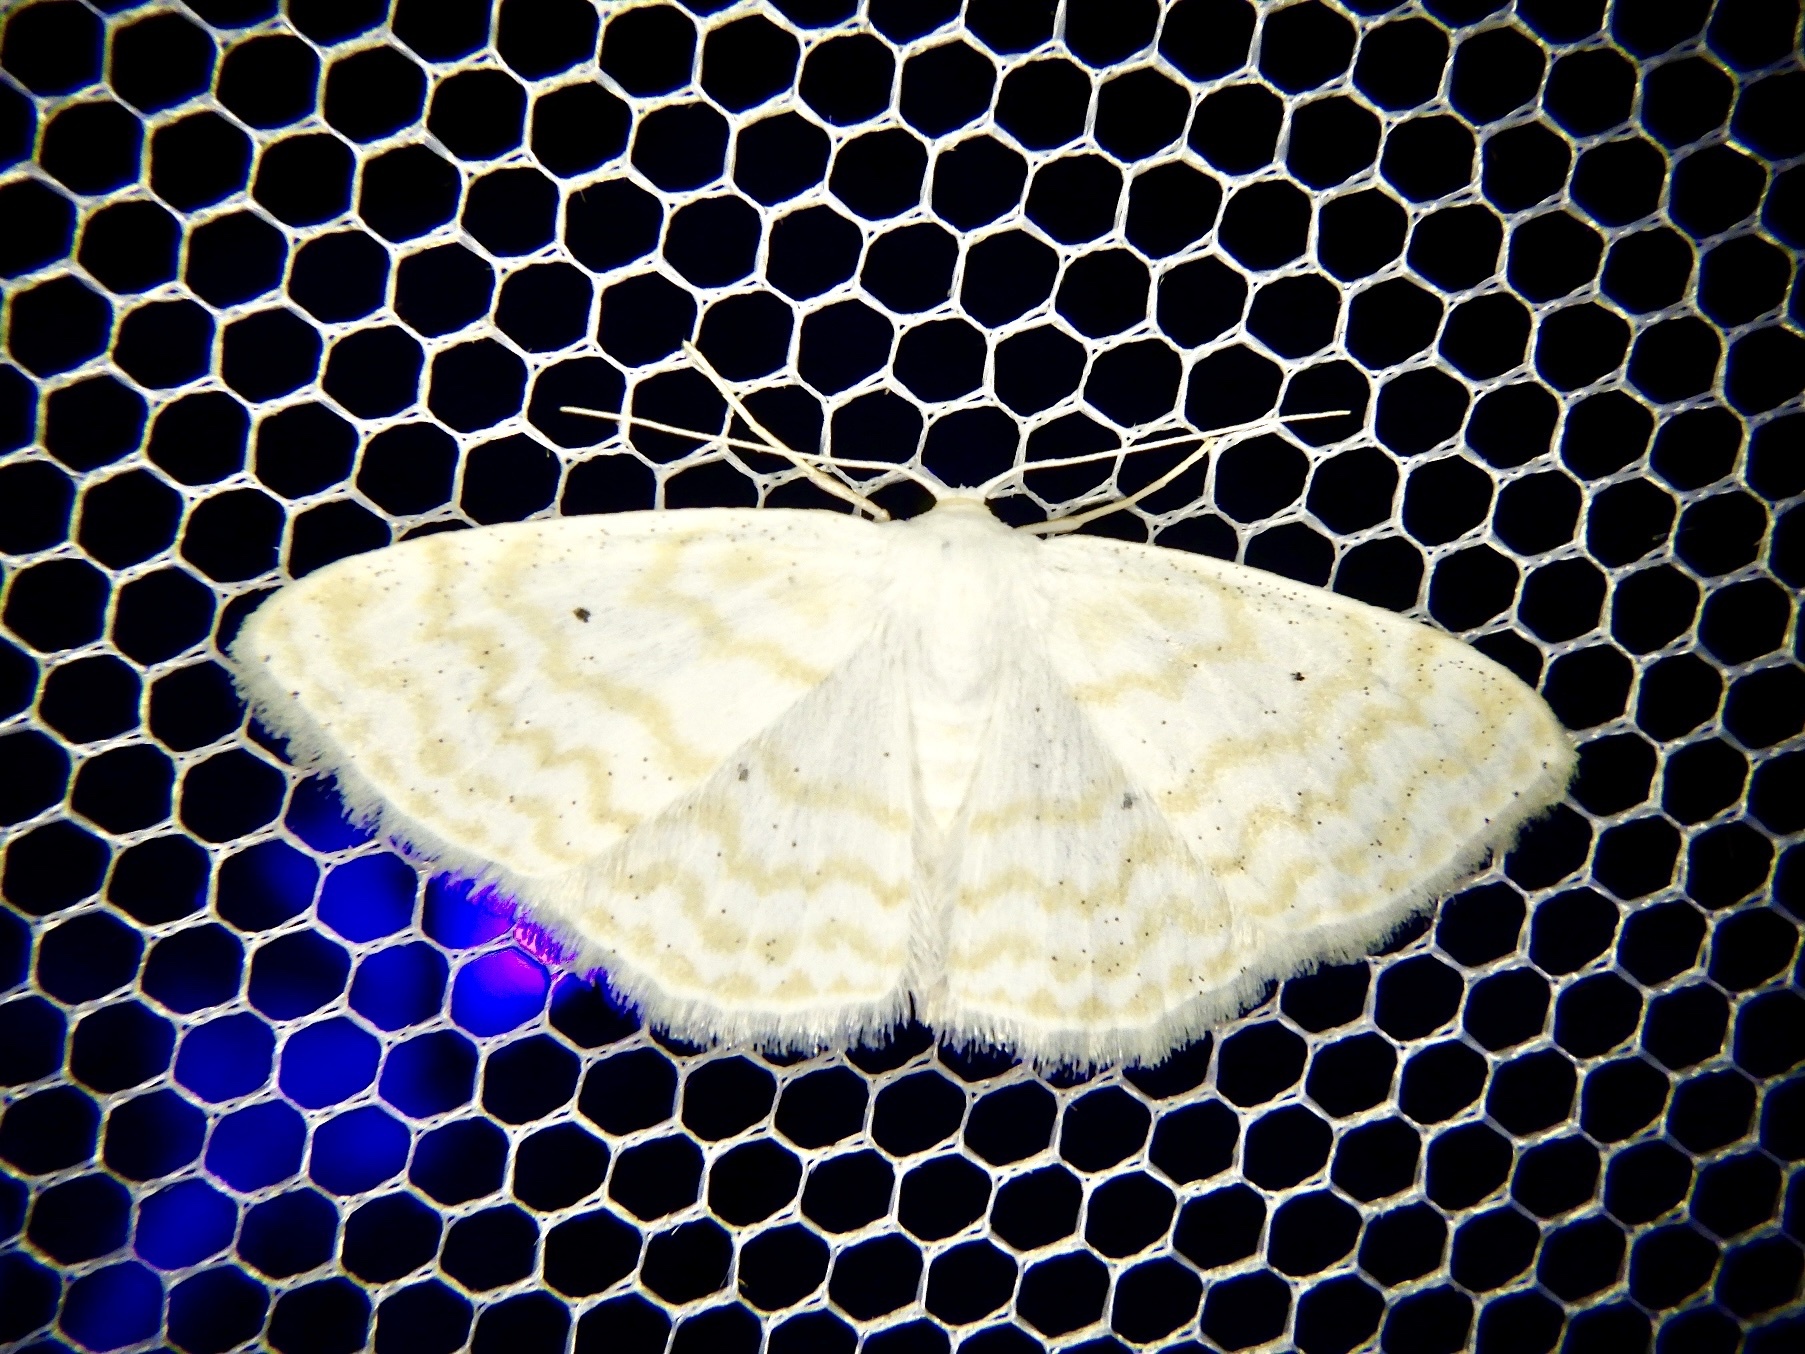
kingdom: Animalia
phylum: Arthropoda
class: Insecta
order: Lepidoptera
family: Geometridae
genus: Scopula
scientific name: Scopula superior
